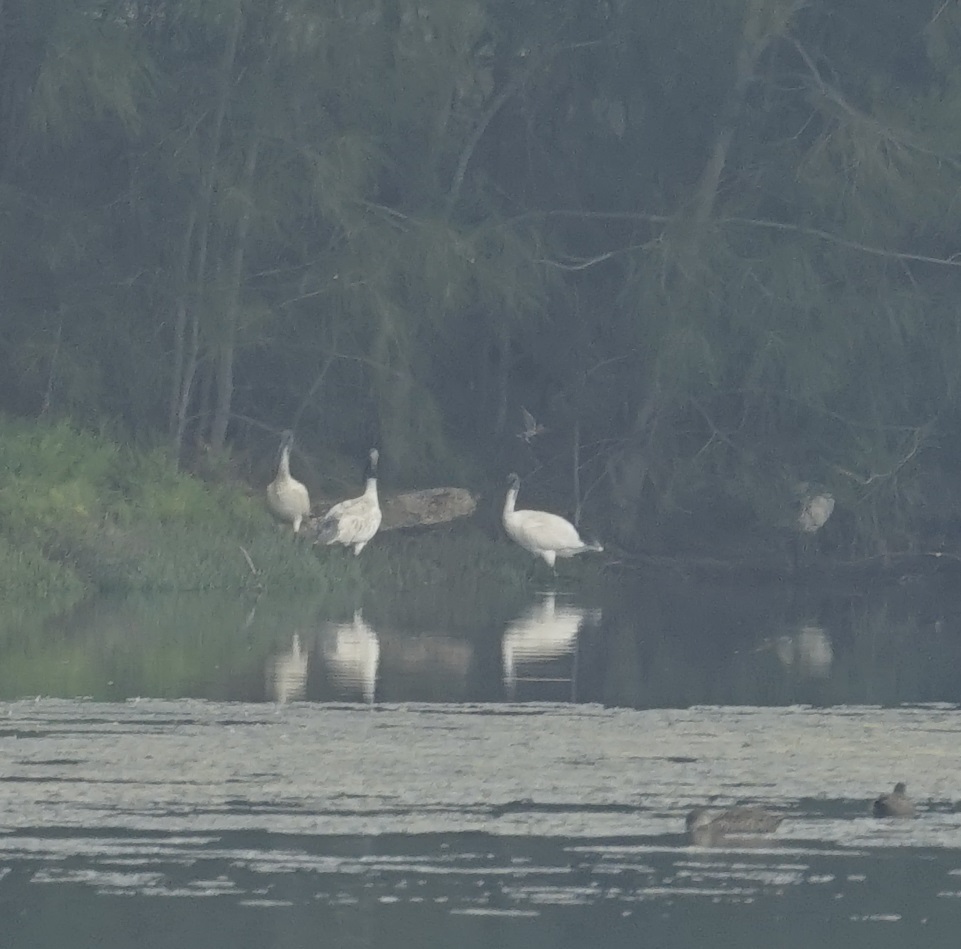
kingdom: Animalia
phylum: Chordata
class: Aves
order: Pelecaniformes
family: Threskiornithidae
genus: Threskiornis
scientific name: Threskiornis molucca
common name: Australian white ibis
